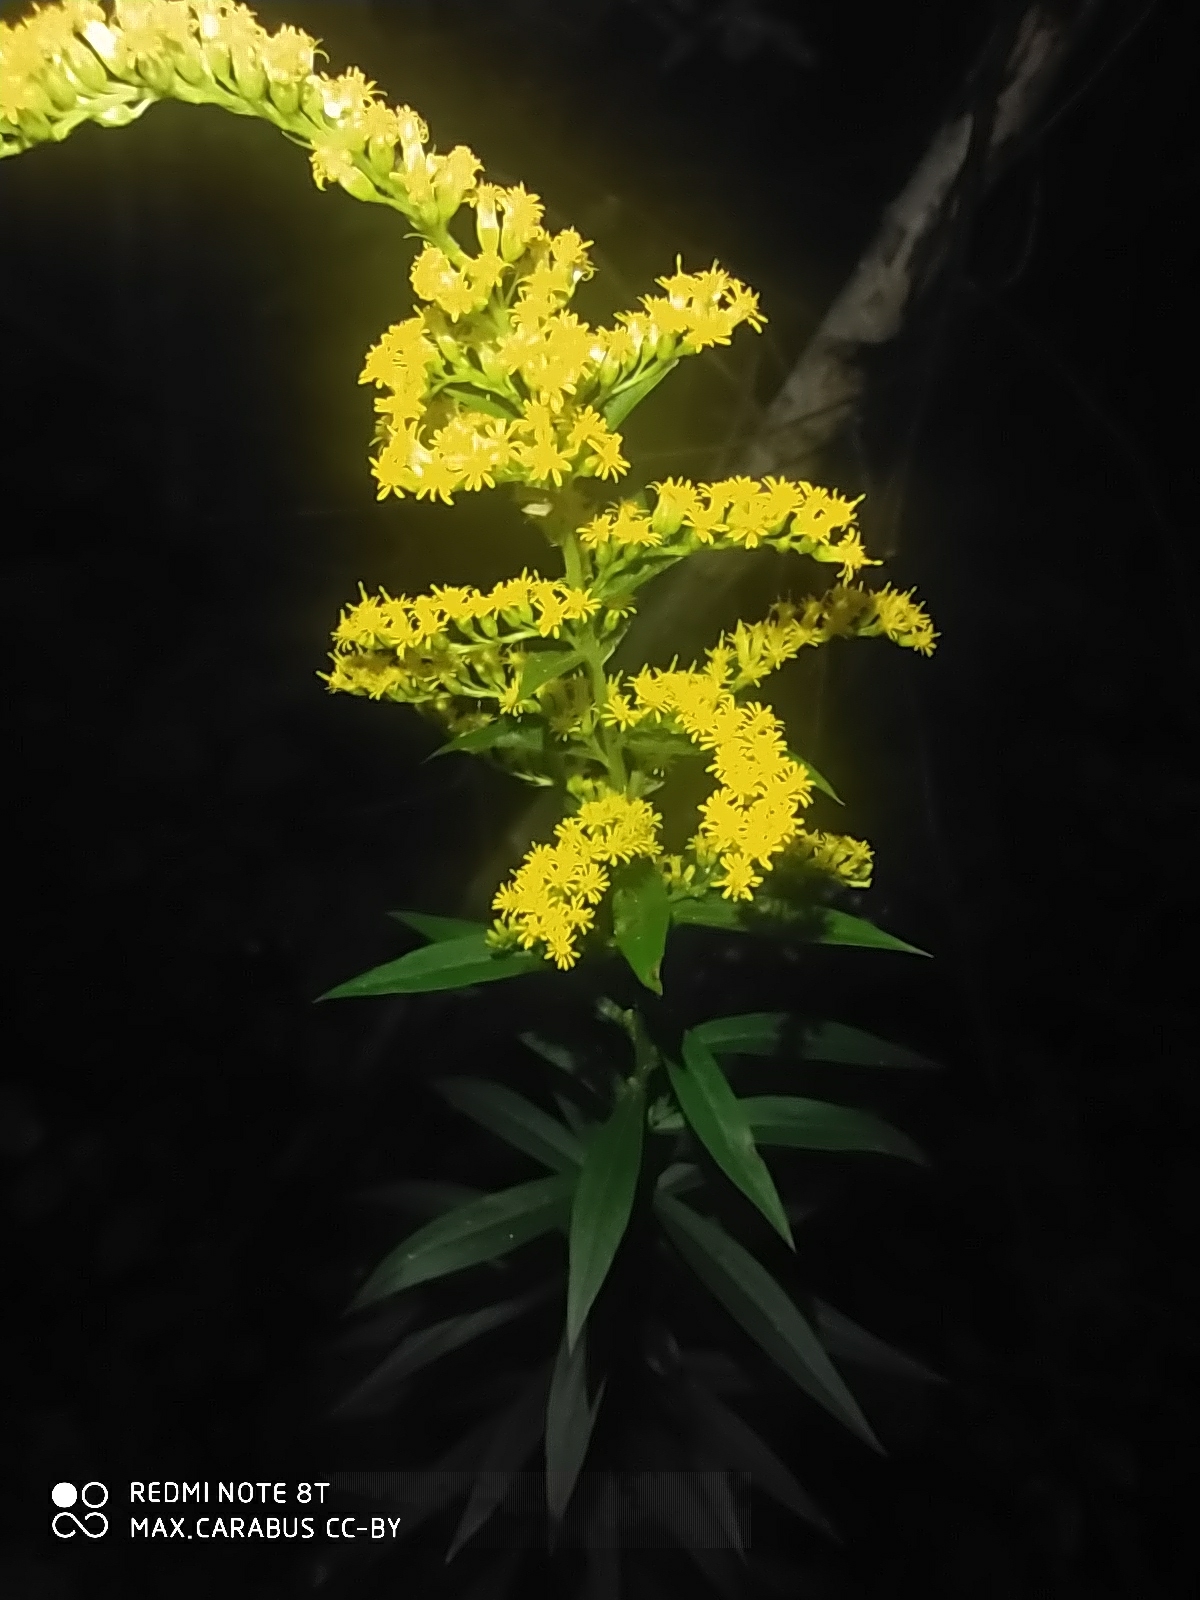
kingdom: Plantae
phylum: Tracheophyta
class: Magnoliopsida
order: Asterales
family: Asteraceae
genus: Solidago
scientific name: Solidago canadensis
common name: Canada goldenrod
